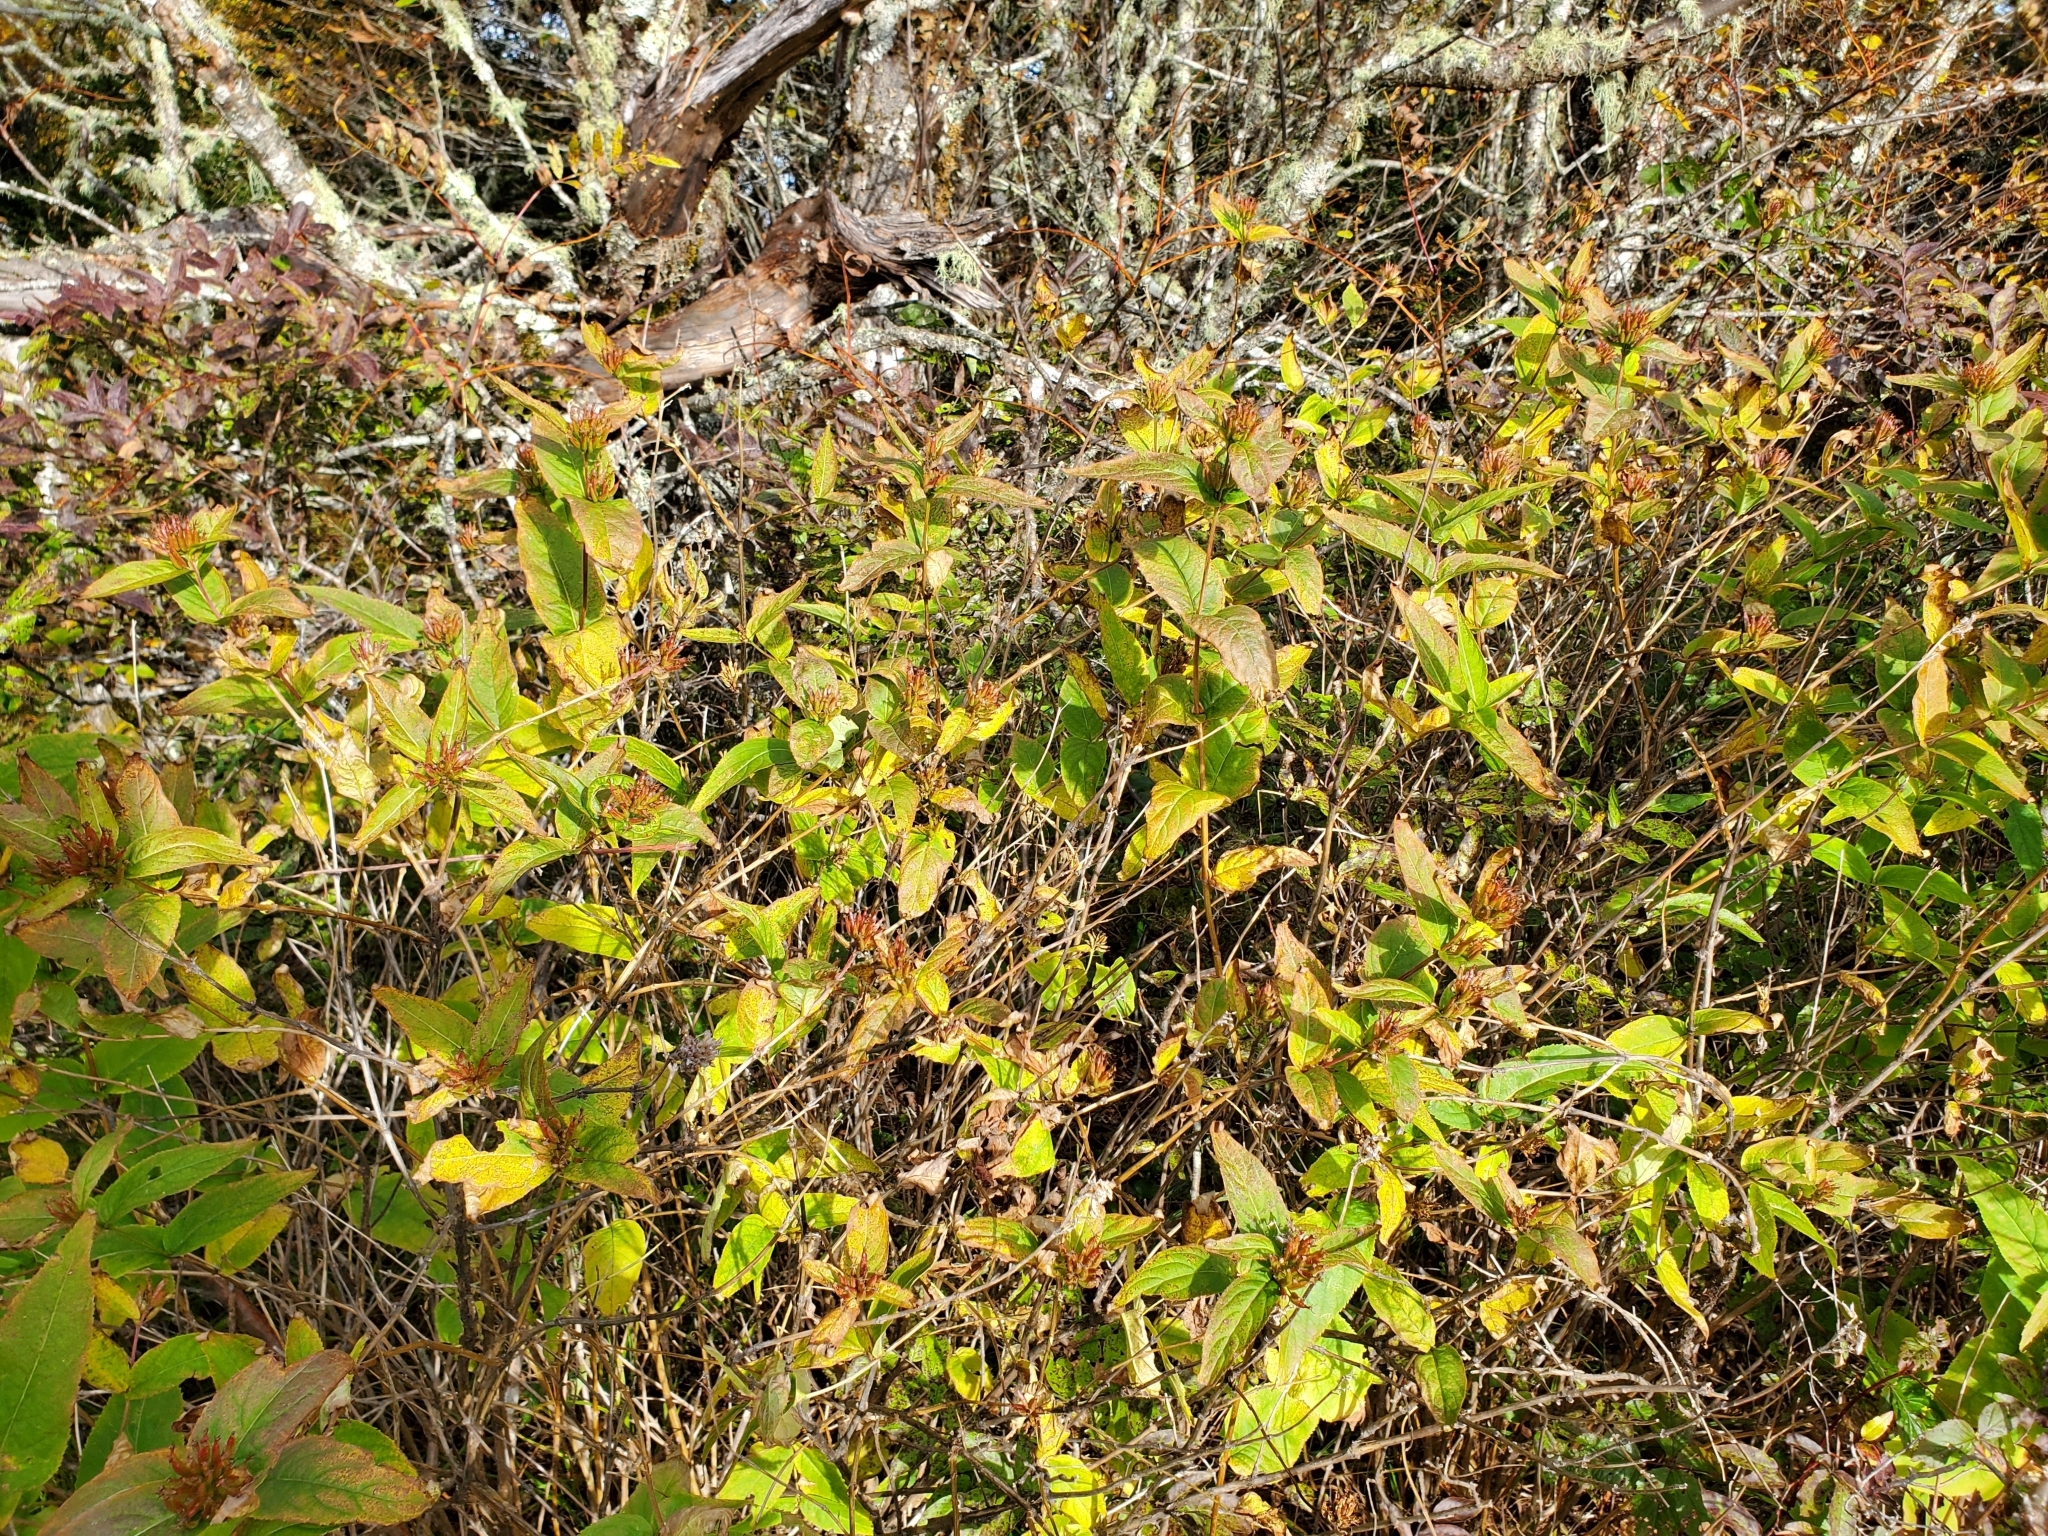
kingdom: Plantae
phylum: Tracheophyta
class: Magnoliopsida
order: Dipsacales
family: Caprifoliaceae
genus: Diervilla
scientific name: Diervilla sessilifolia
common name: Bush-honeysuckle
